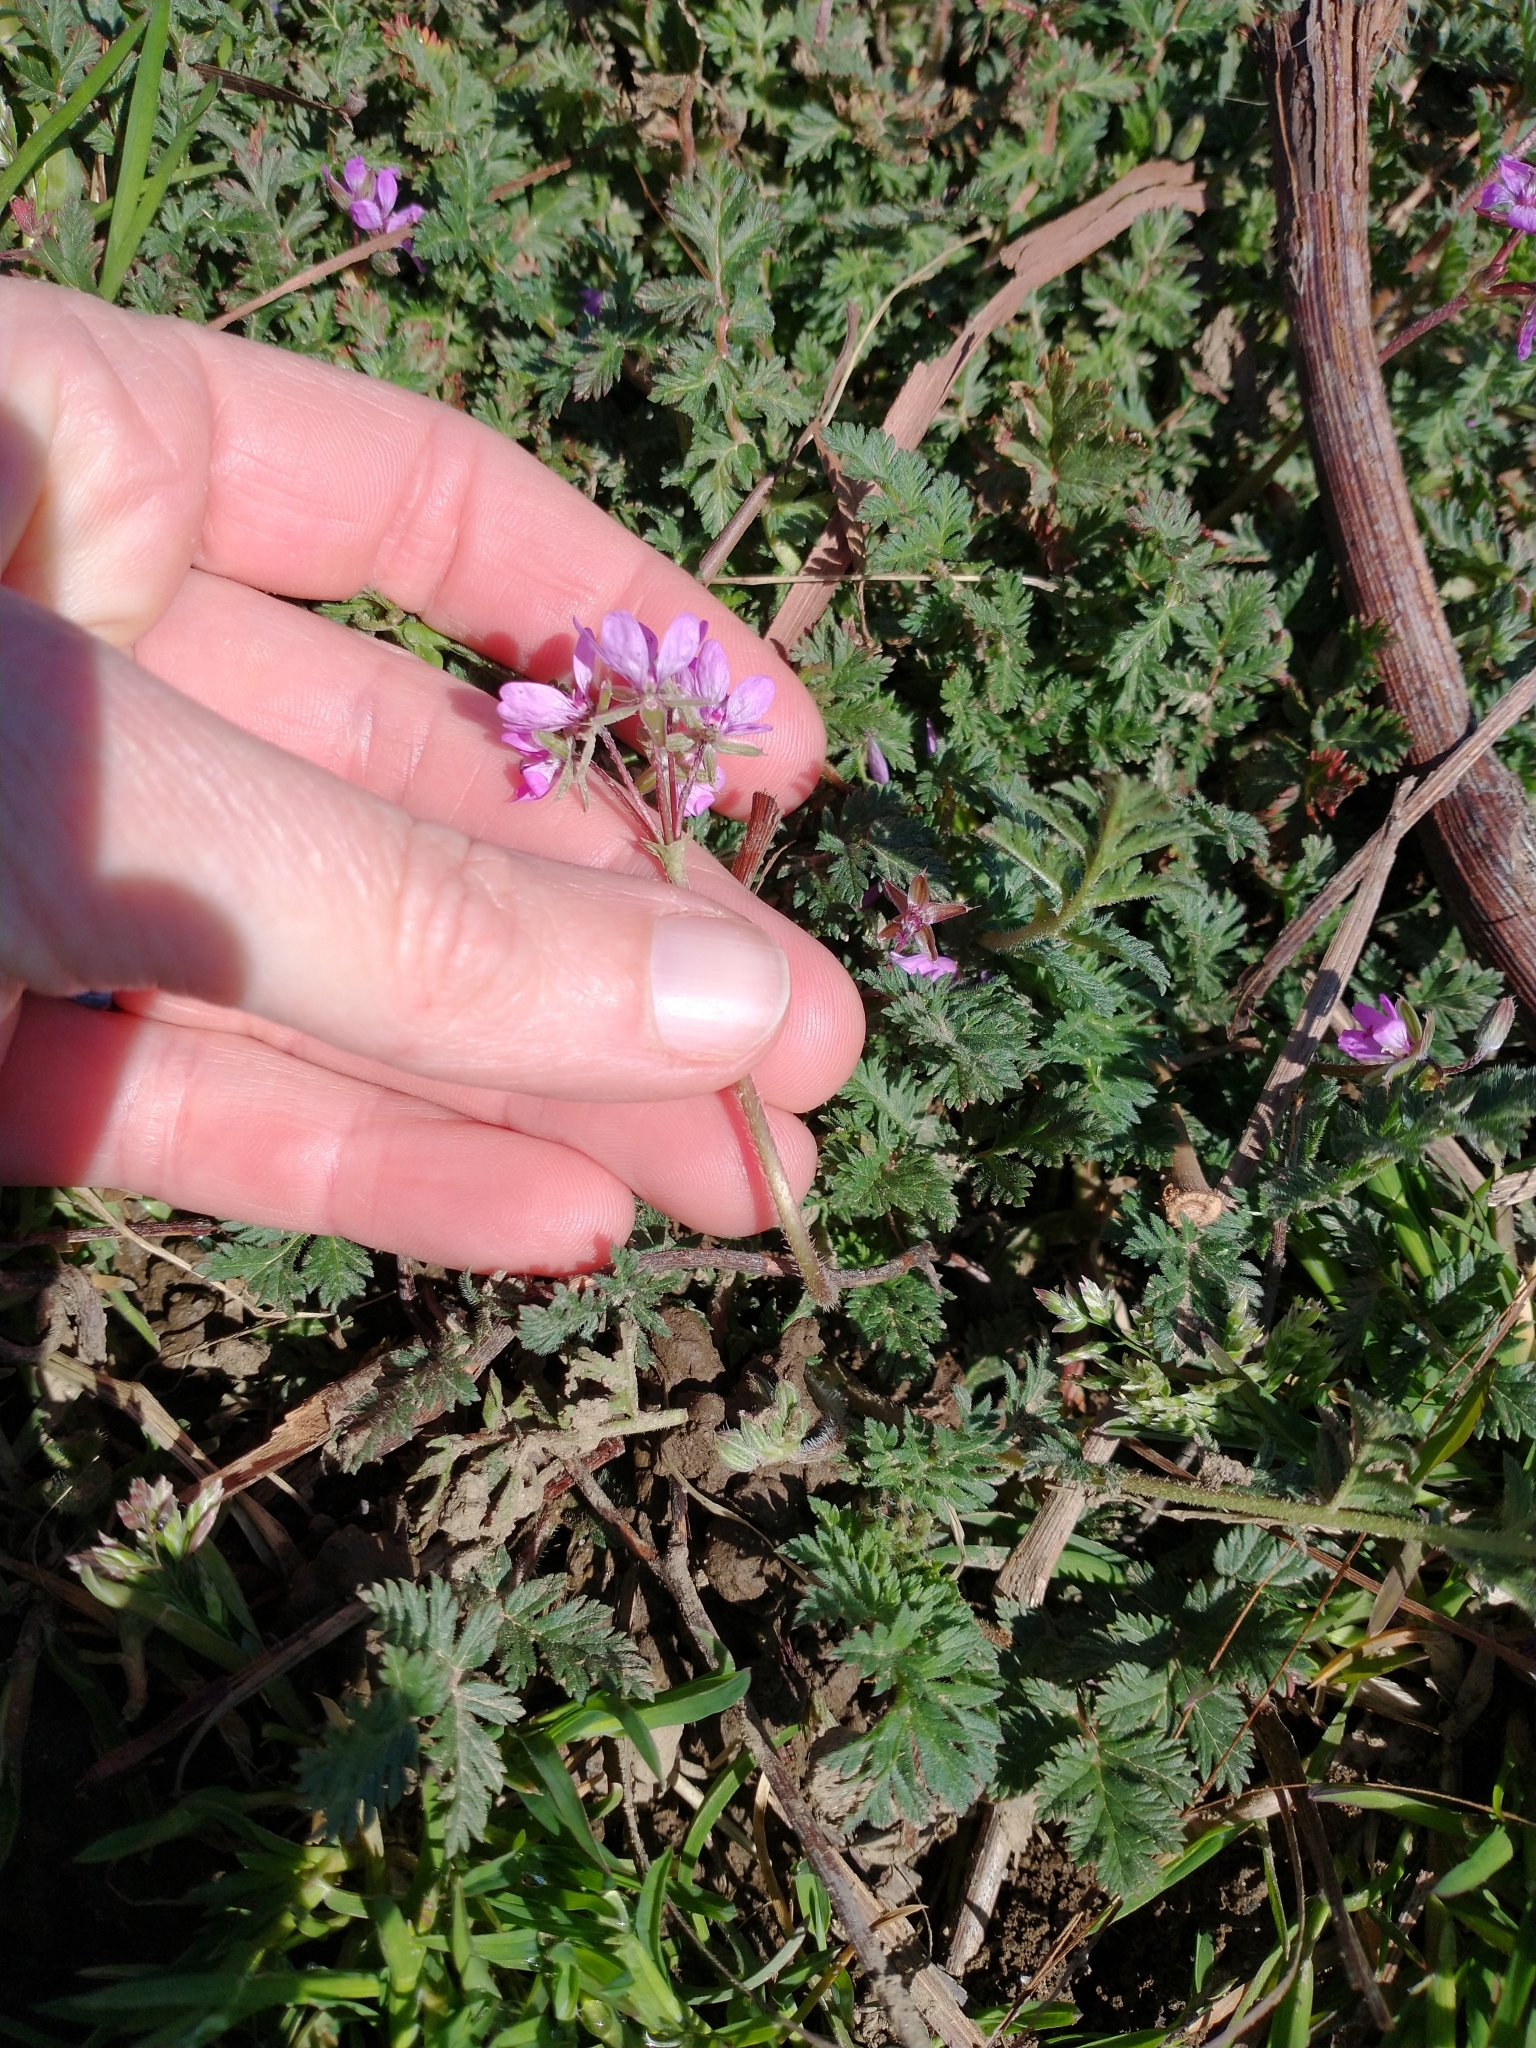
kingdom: Plantae
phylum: Tracheophyta
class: Magnoliopsida
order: Geraniales
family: Geraniaceae
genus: Erodium
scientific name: Erodium cicutarium
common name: Common stork's-bill
